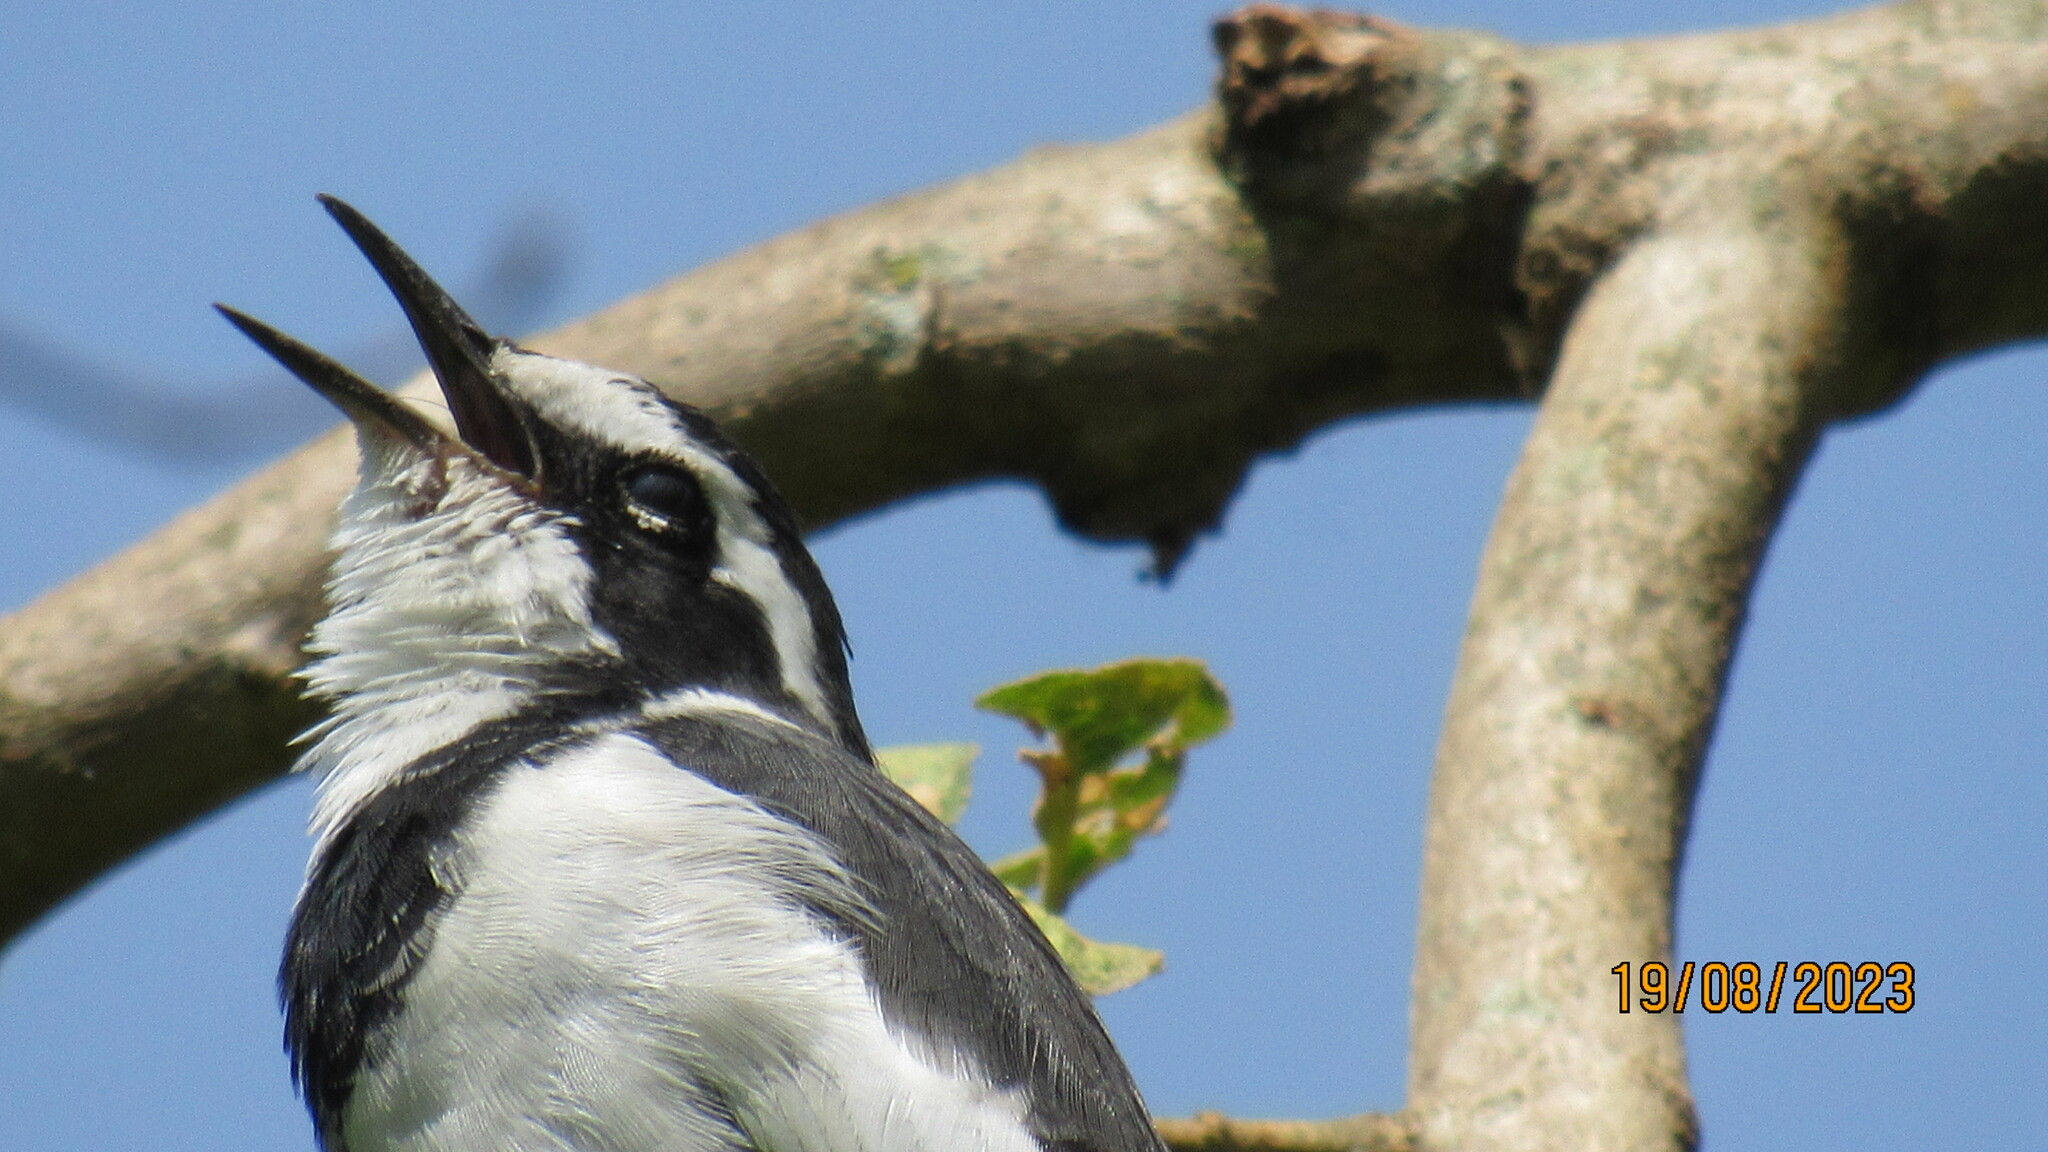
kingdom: Animalia
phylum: Chordata
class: Aves
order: Passeriformes
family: Motacillidae
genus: Motacilla
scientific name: Motacilla aguimp
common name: African pied wagtail
